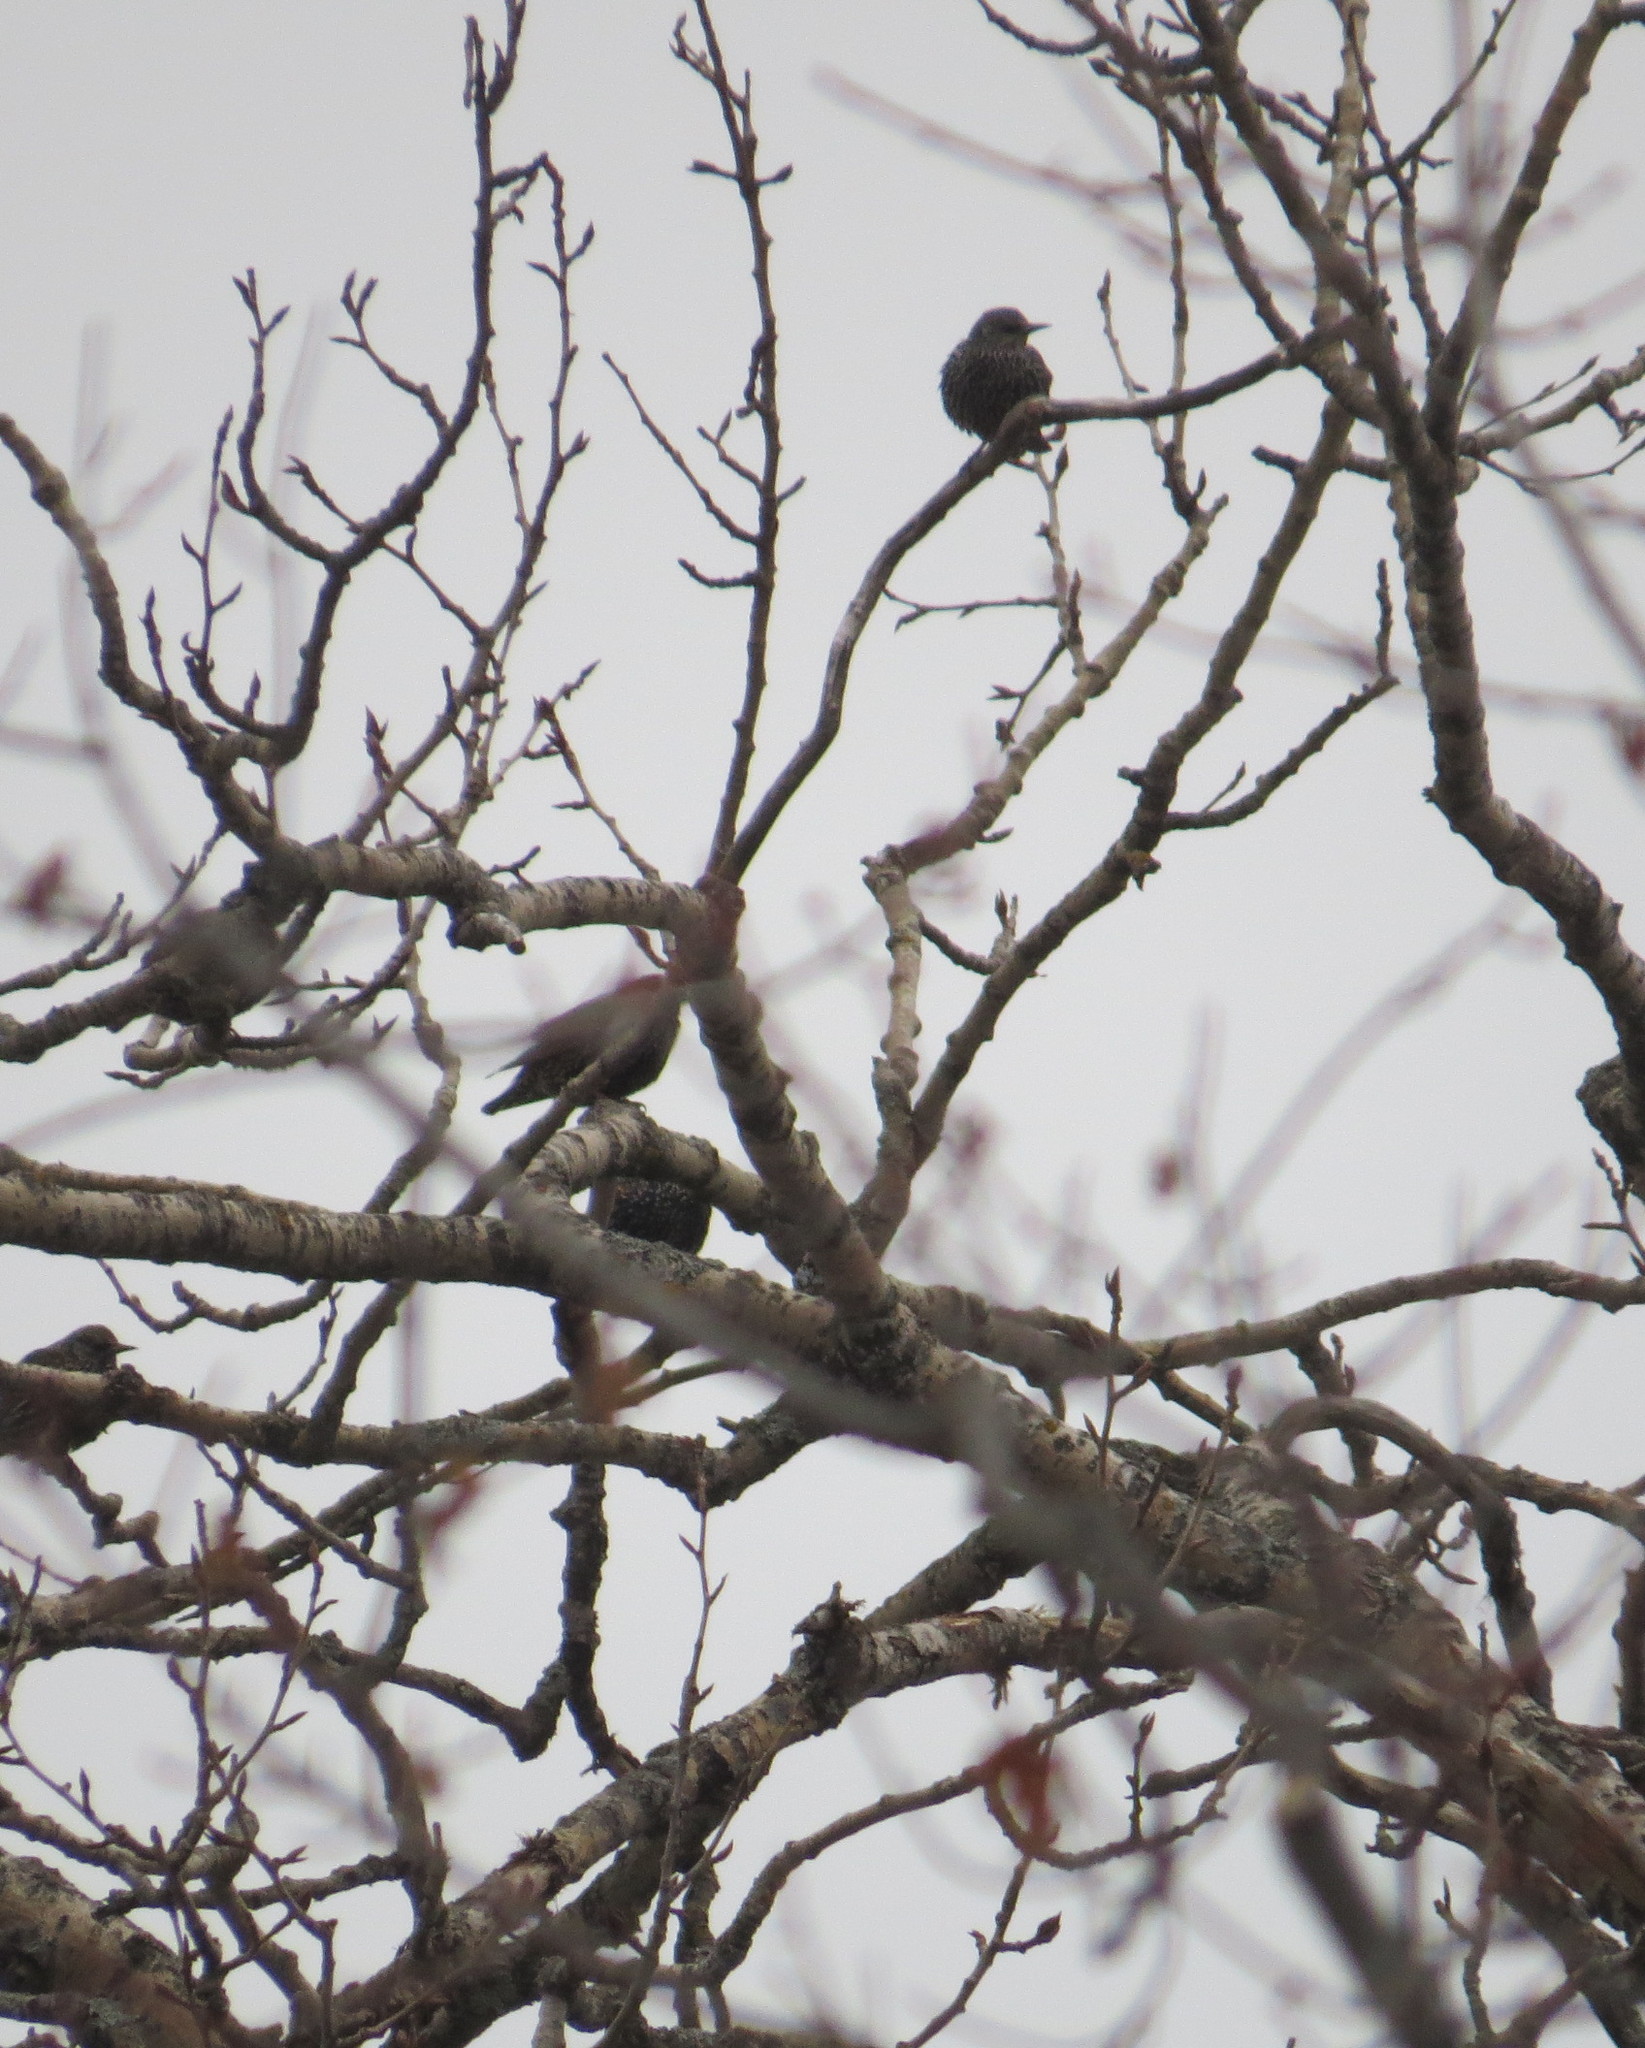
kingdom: Animalia
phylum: Chordata
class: Aves
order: Passeriformes
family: Sturnidae
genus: Sturnus
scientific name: Sturnus vulgaris
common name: Common starling
